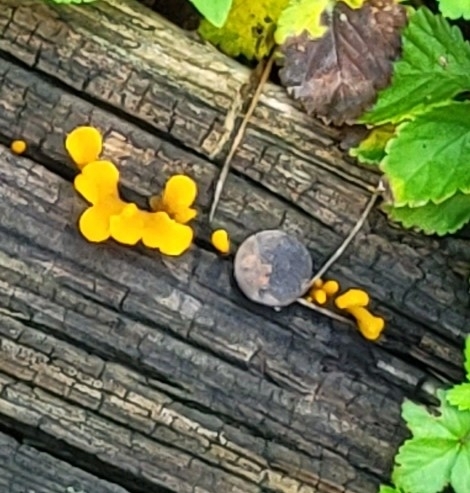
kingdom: Fungi
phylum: Basidiomycota
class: Dacrymycetes
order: Dacrymycetales
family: Dacrymycetaceae
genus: Dacrymyces
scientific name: Dacrymyces spathularius
